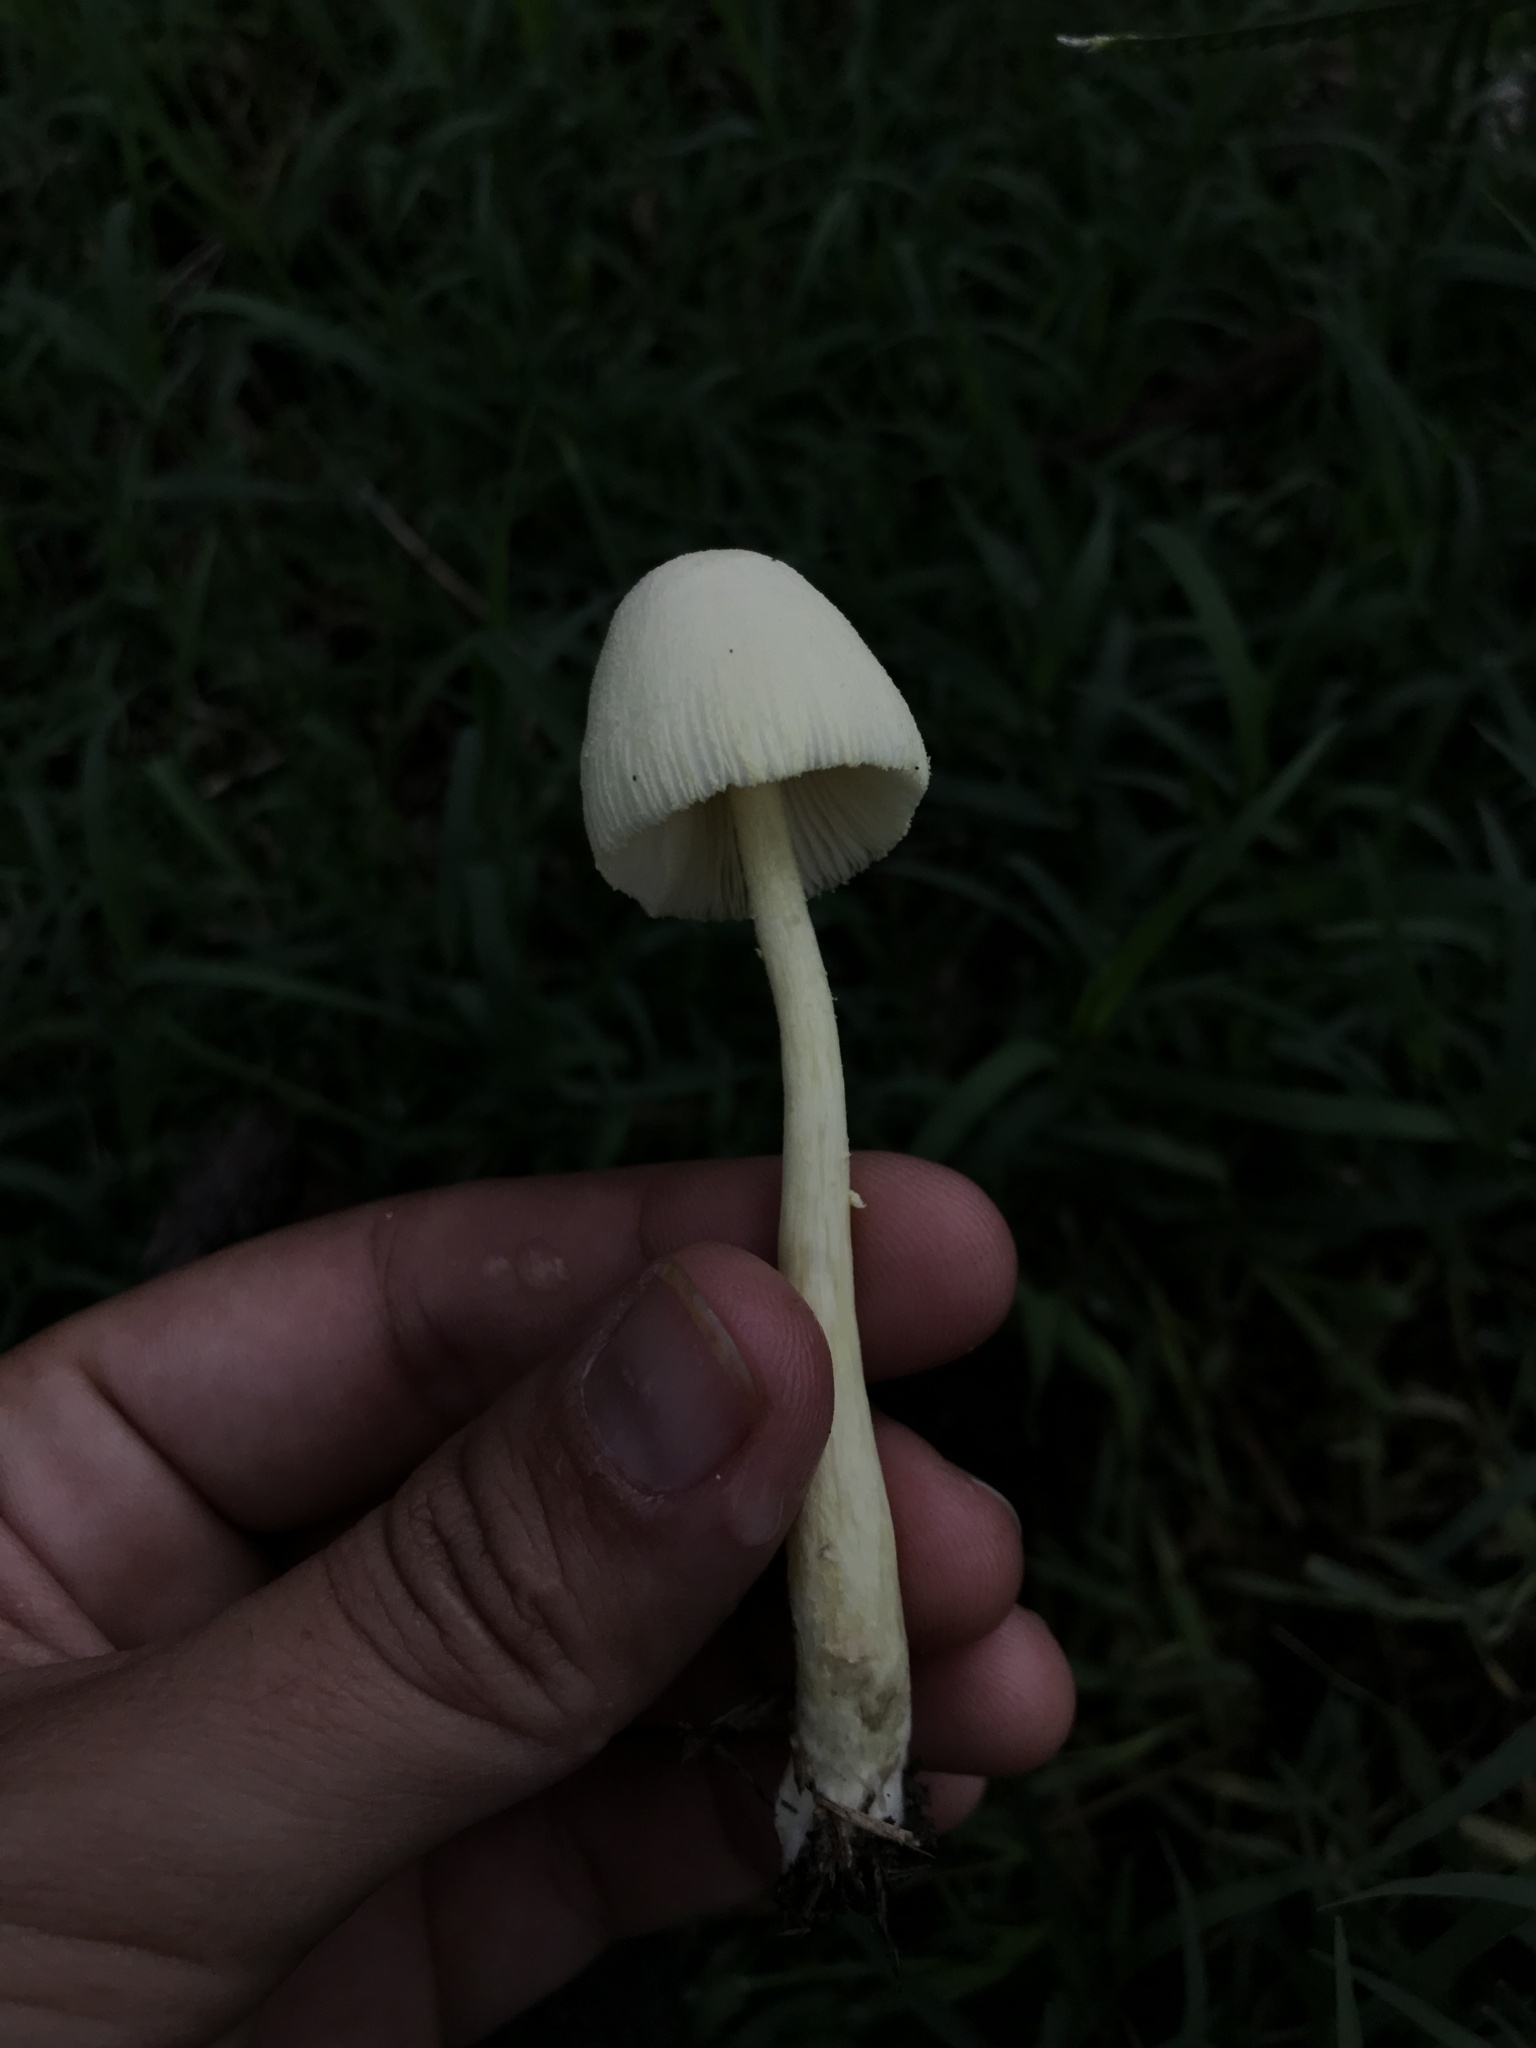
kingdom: Fungi
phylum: Basidiomycota
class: Agaricomycetes
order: Agaricales
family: Agaricaceae
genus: Leucocoprinus
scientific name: Leucocoprinus birnbaumii
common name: Plantpot dapperling
